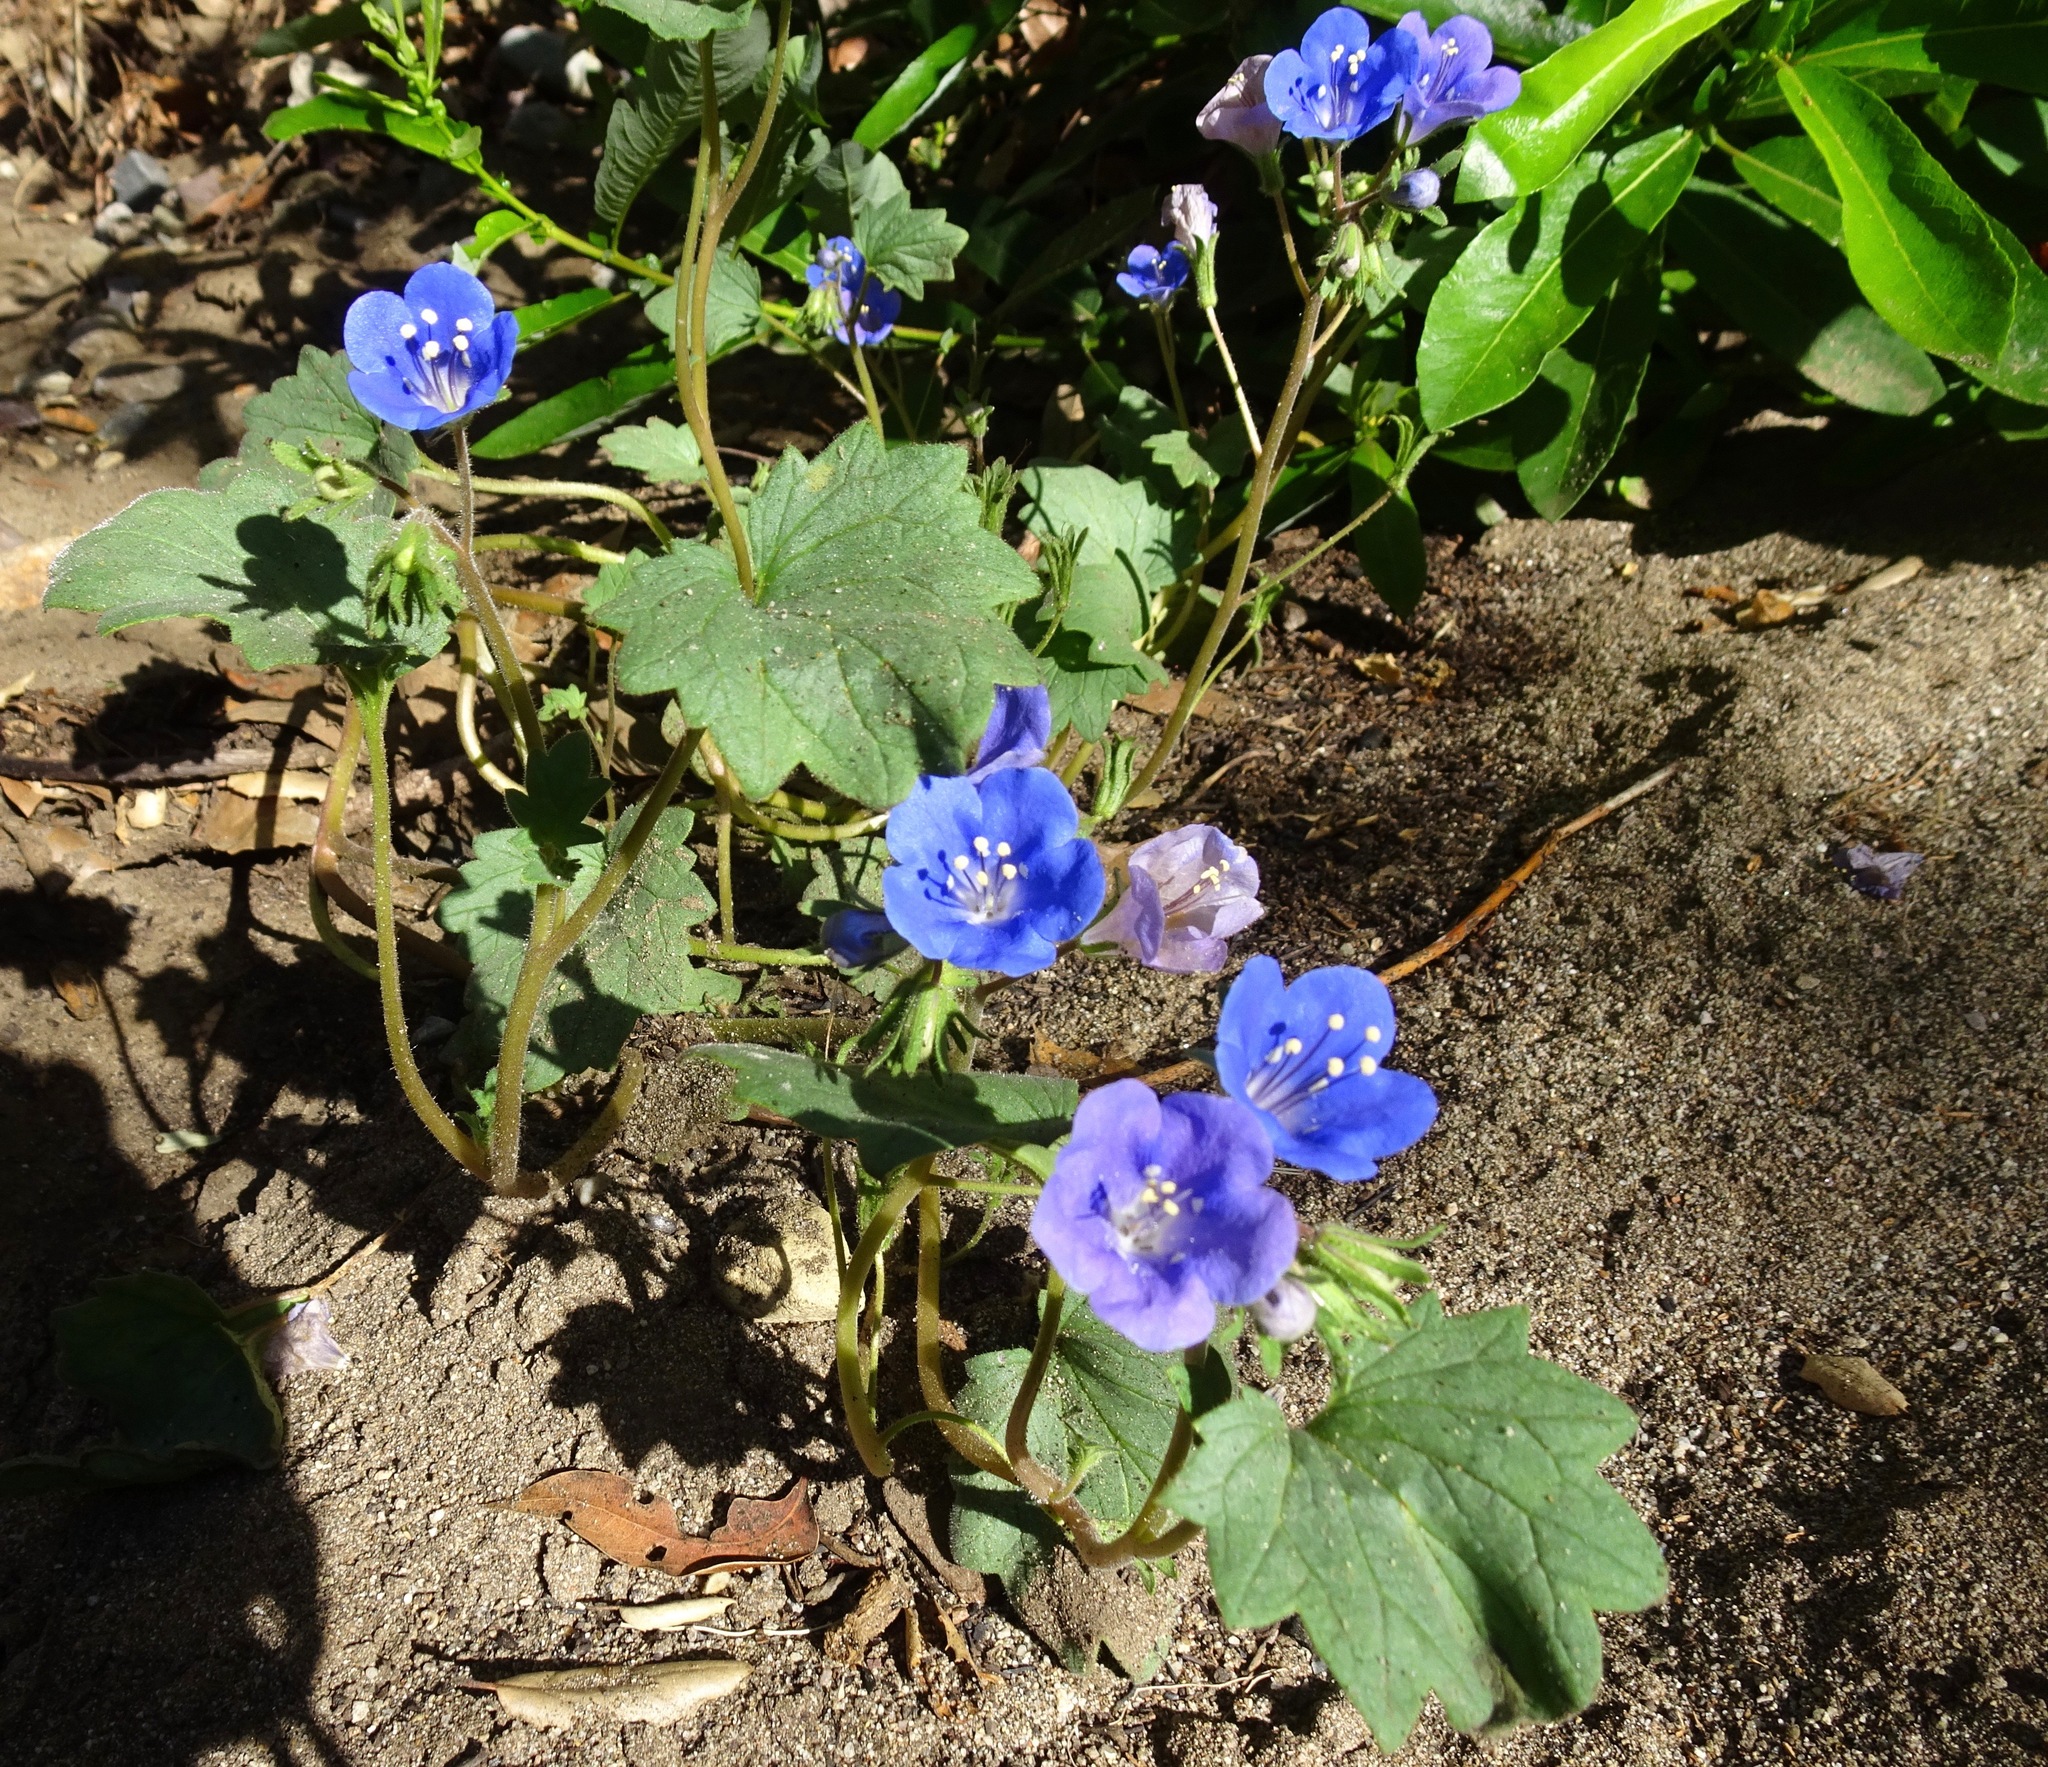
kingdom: Plantae
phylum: Tracheophyta
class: Magnoliopsida
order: Boraginales
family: Hydrophyllaceae
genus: Phacelia
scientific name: Phacelia campanularia
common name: California bluebell
